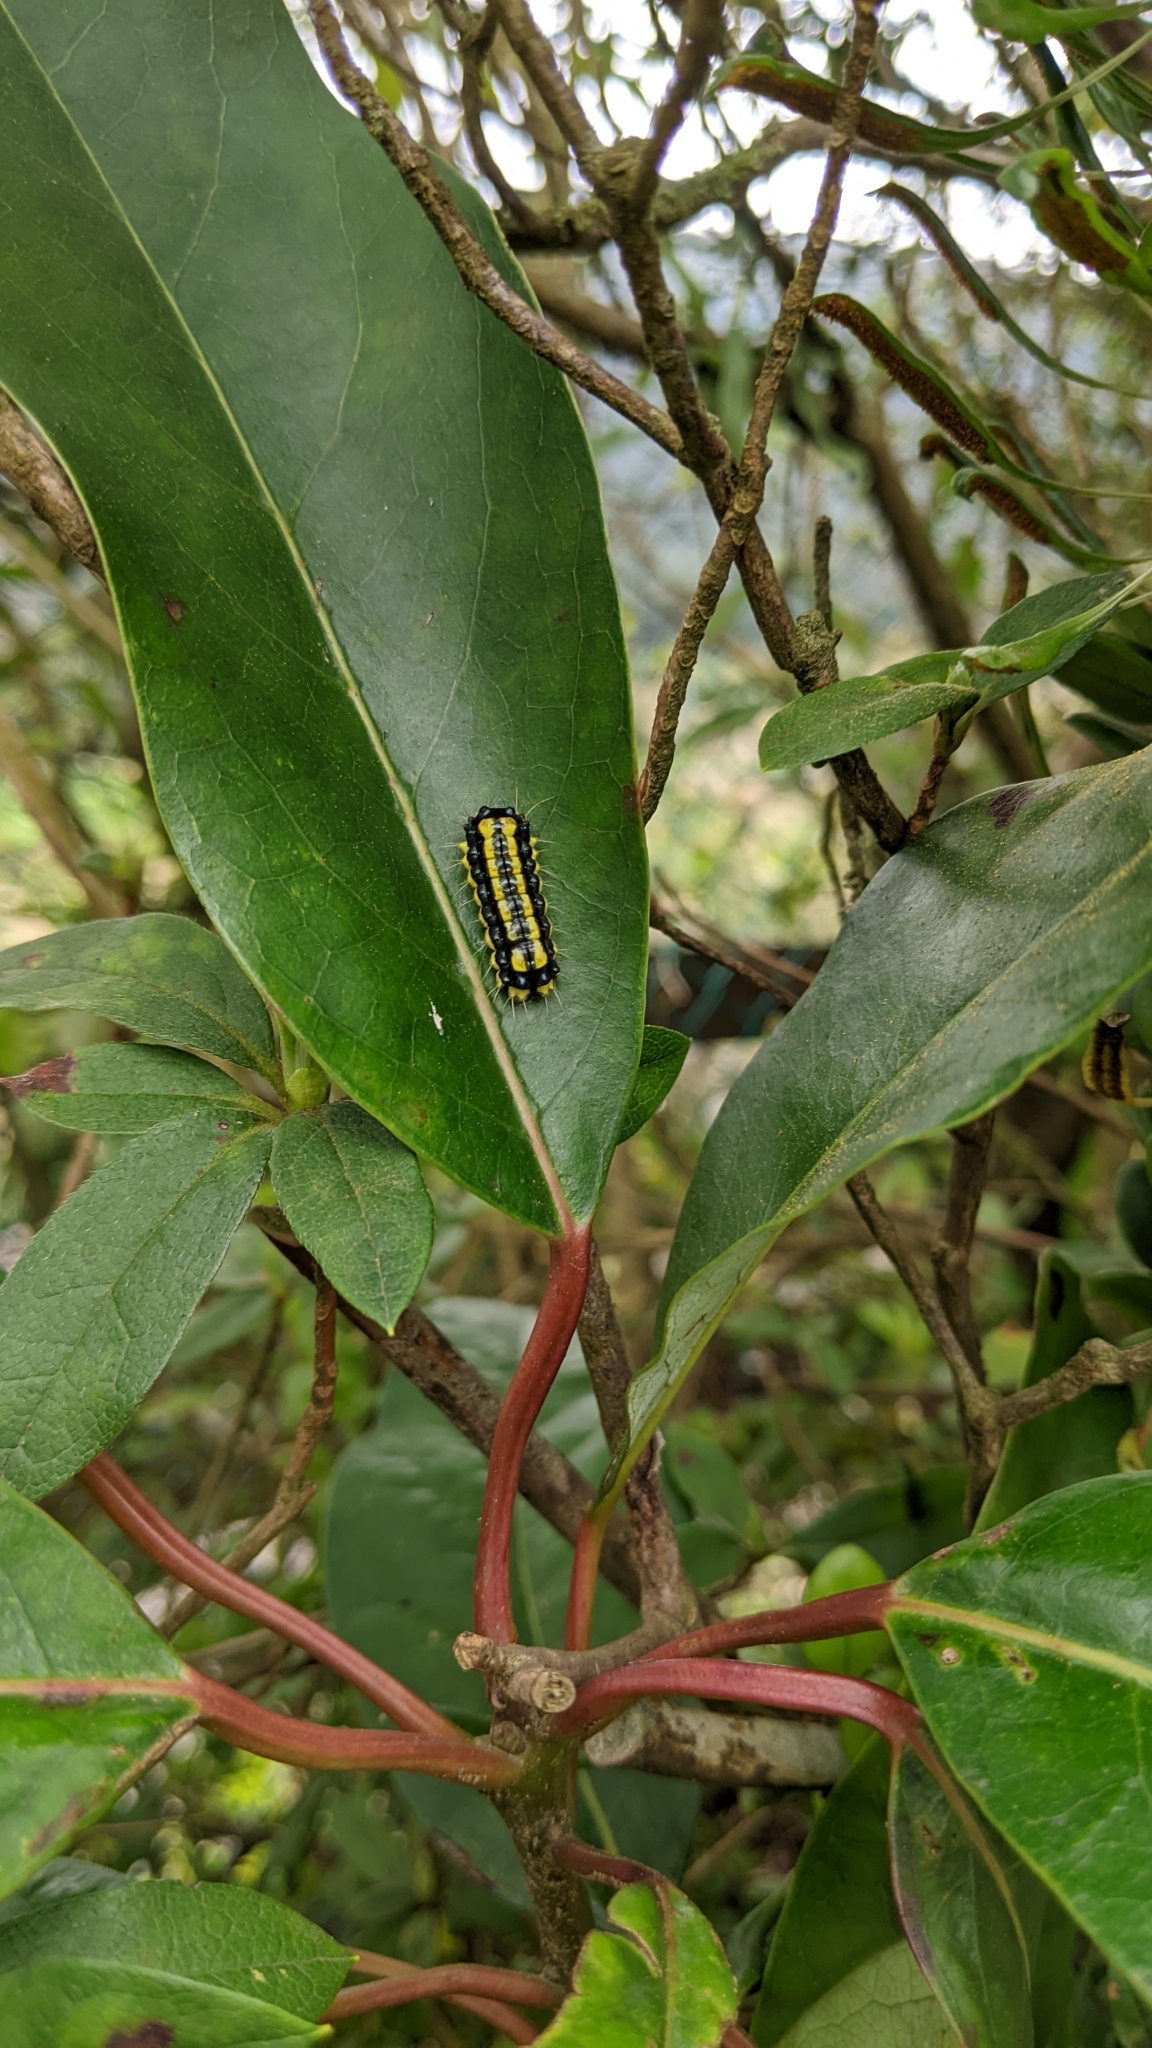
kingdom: Animalia
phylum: Arthropoda
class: Insecta
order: Lepidoptera
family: Zygaenidae
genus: Pidorus
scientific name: Pidorus glaucopis
